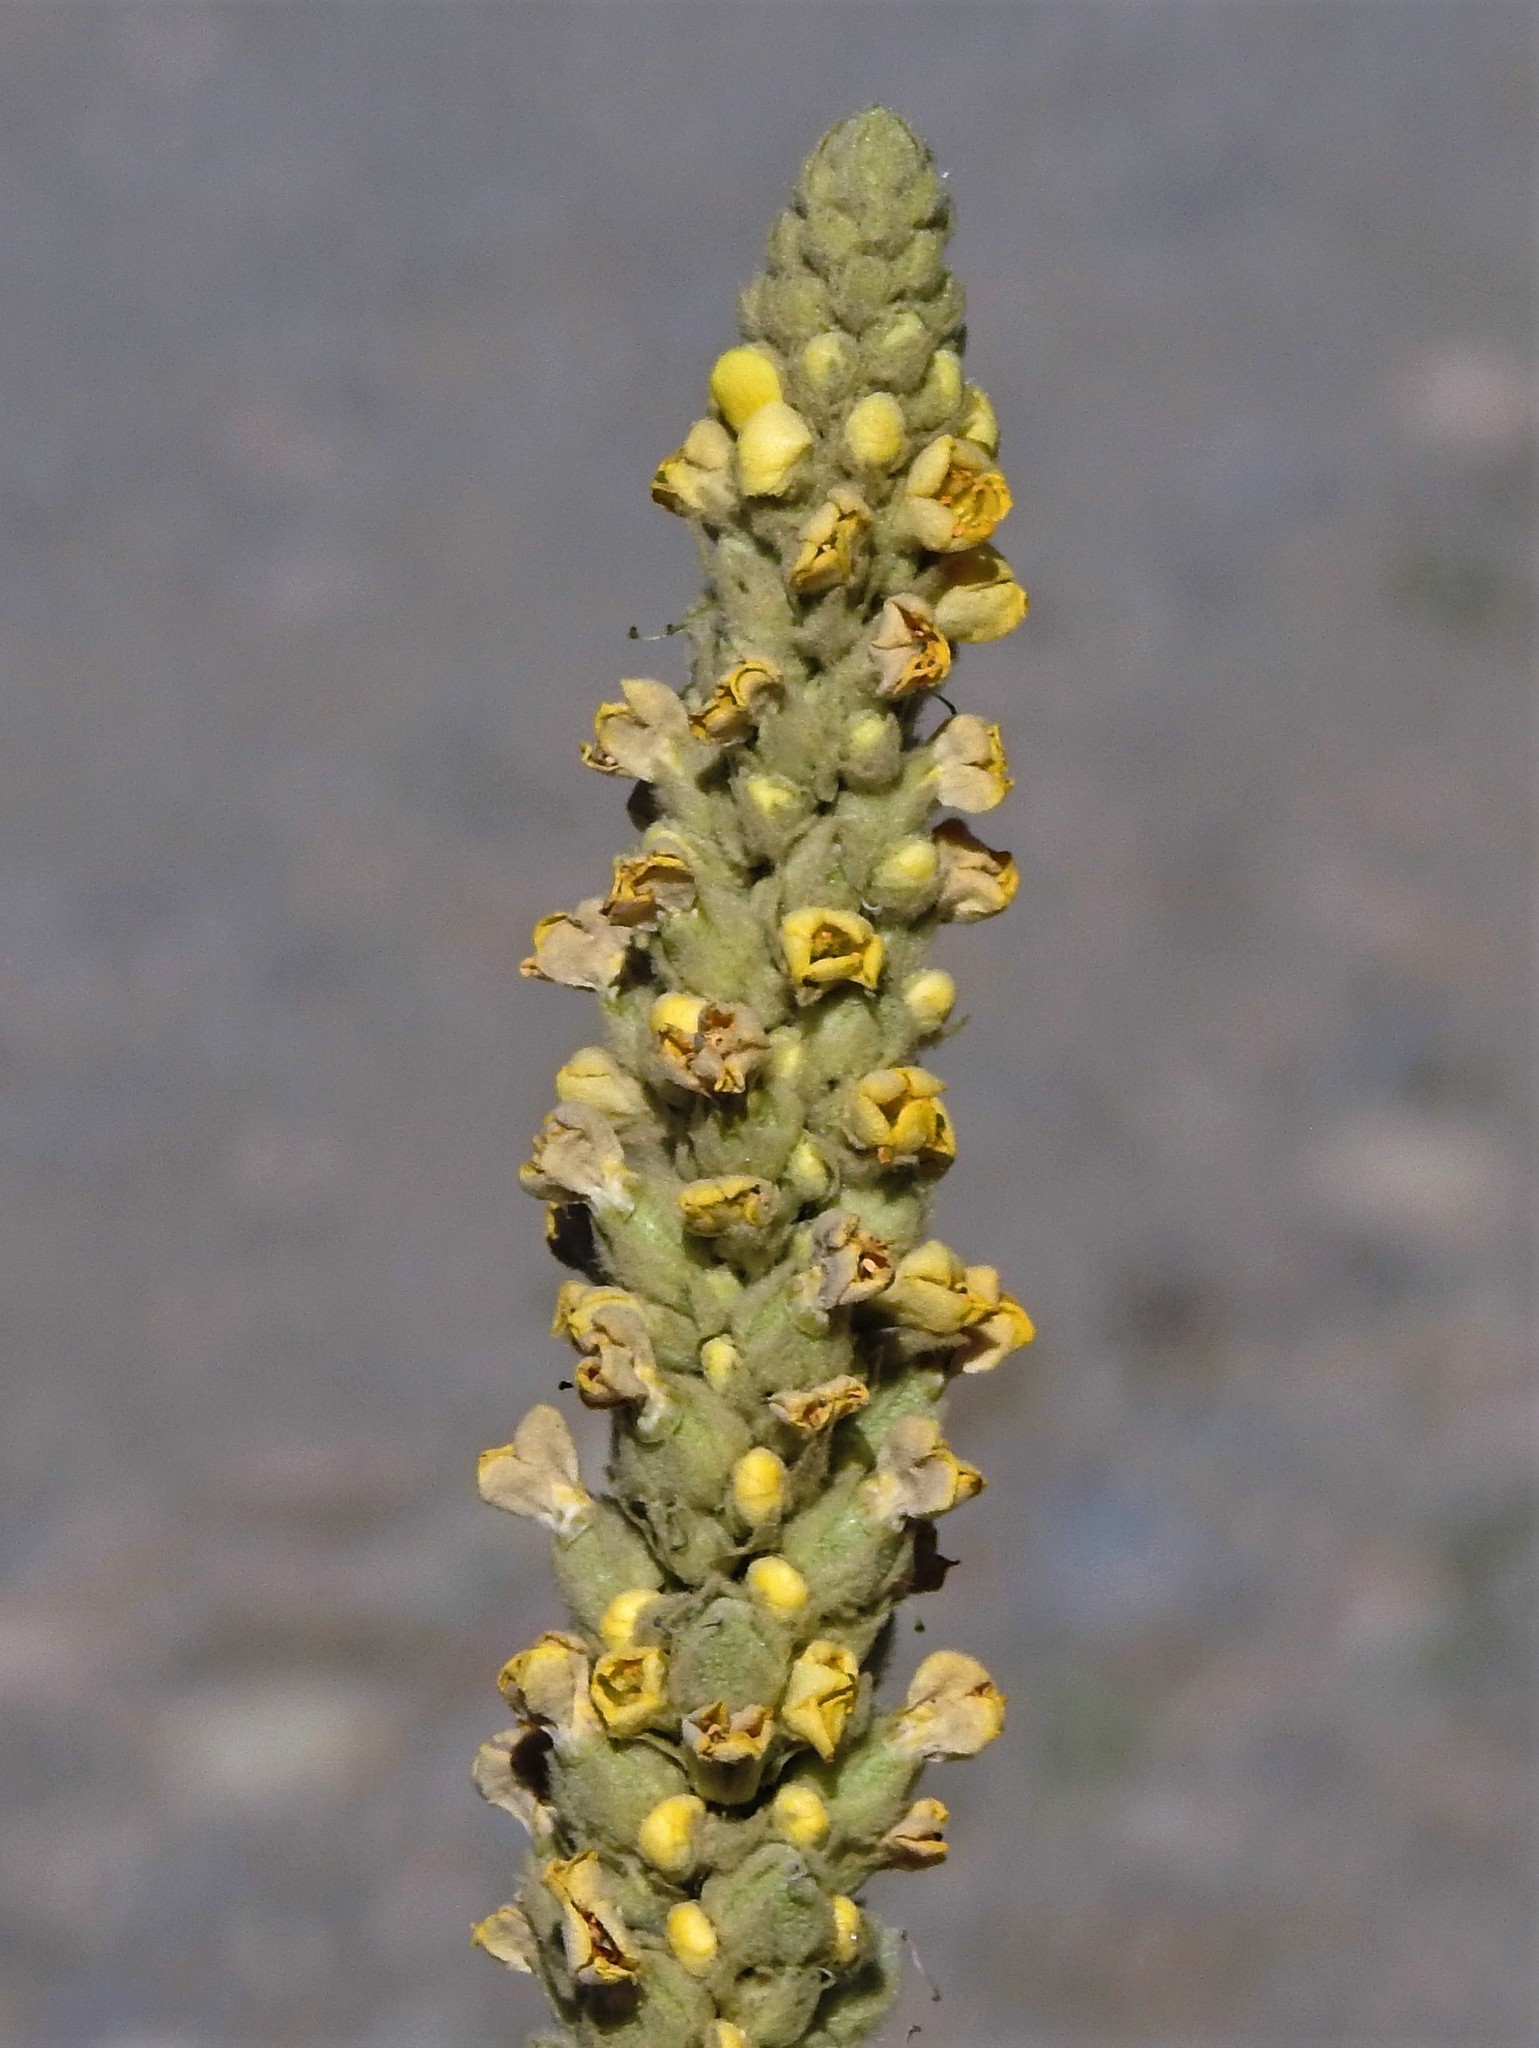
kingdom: Plantae
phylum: Tracheophyta
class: Magnoliopsida
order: Lamiales
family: Scrophulariaceae
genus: Verbascum
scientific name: Verbascum thapsus
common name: Common mullein
